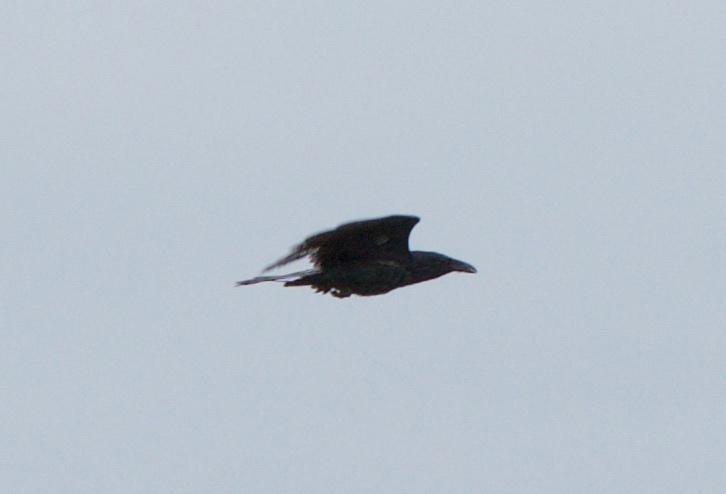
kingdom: Animalia
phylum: Chordata
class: Aves
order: Passeriformes
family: Corvidae
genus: Corvus
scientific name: Corvus corax
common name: Common raven
